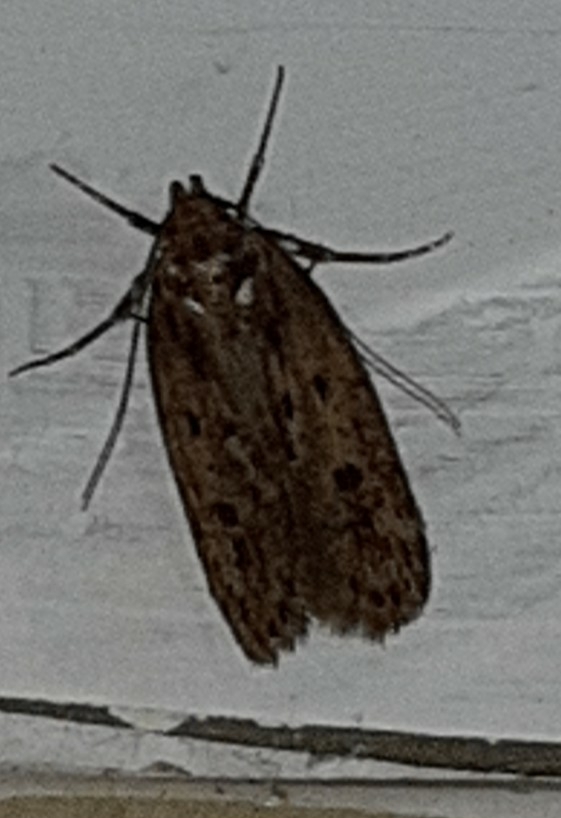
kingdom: Animalia
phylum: Arthropoda
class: Insecta
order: Lepidoptera
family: Oecophoridae
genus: Hofmannophila
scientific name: Hofmannophila pseudospretella
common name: Brown house moth
